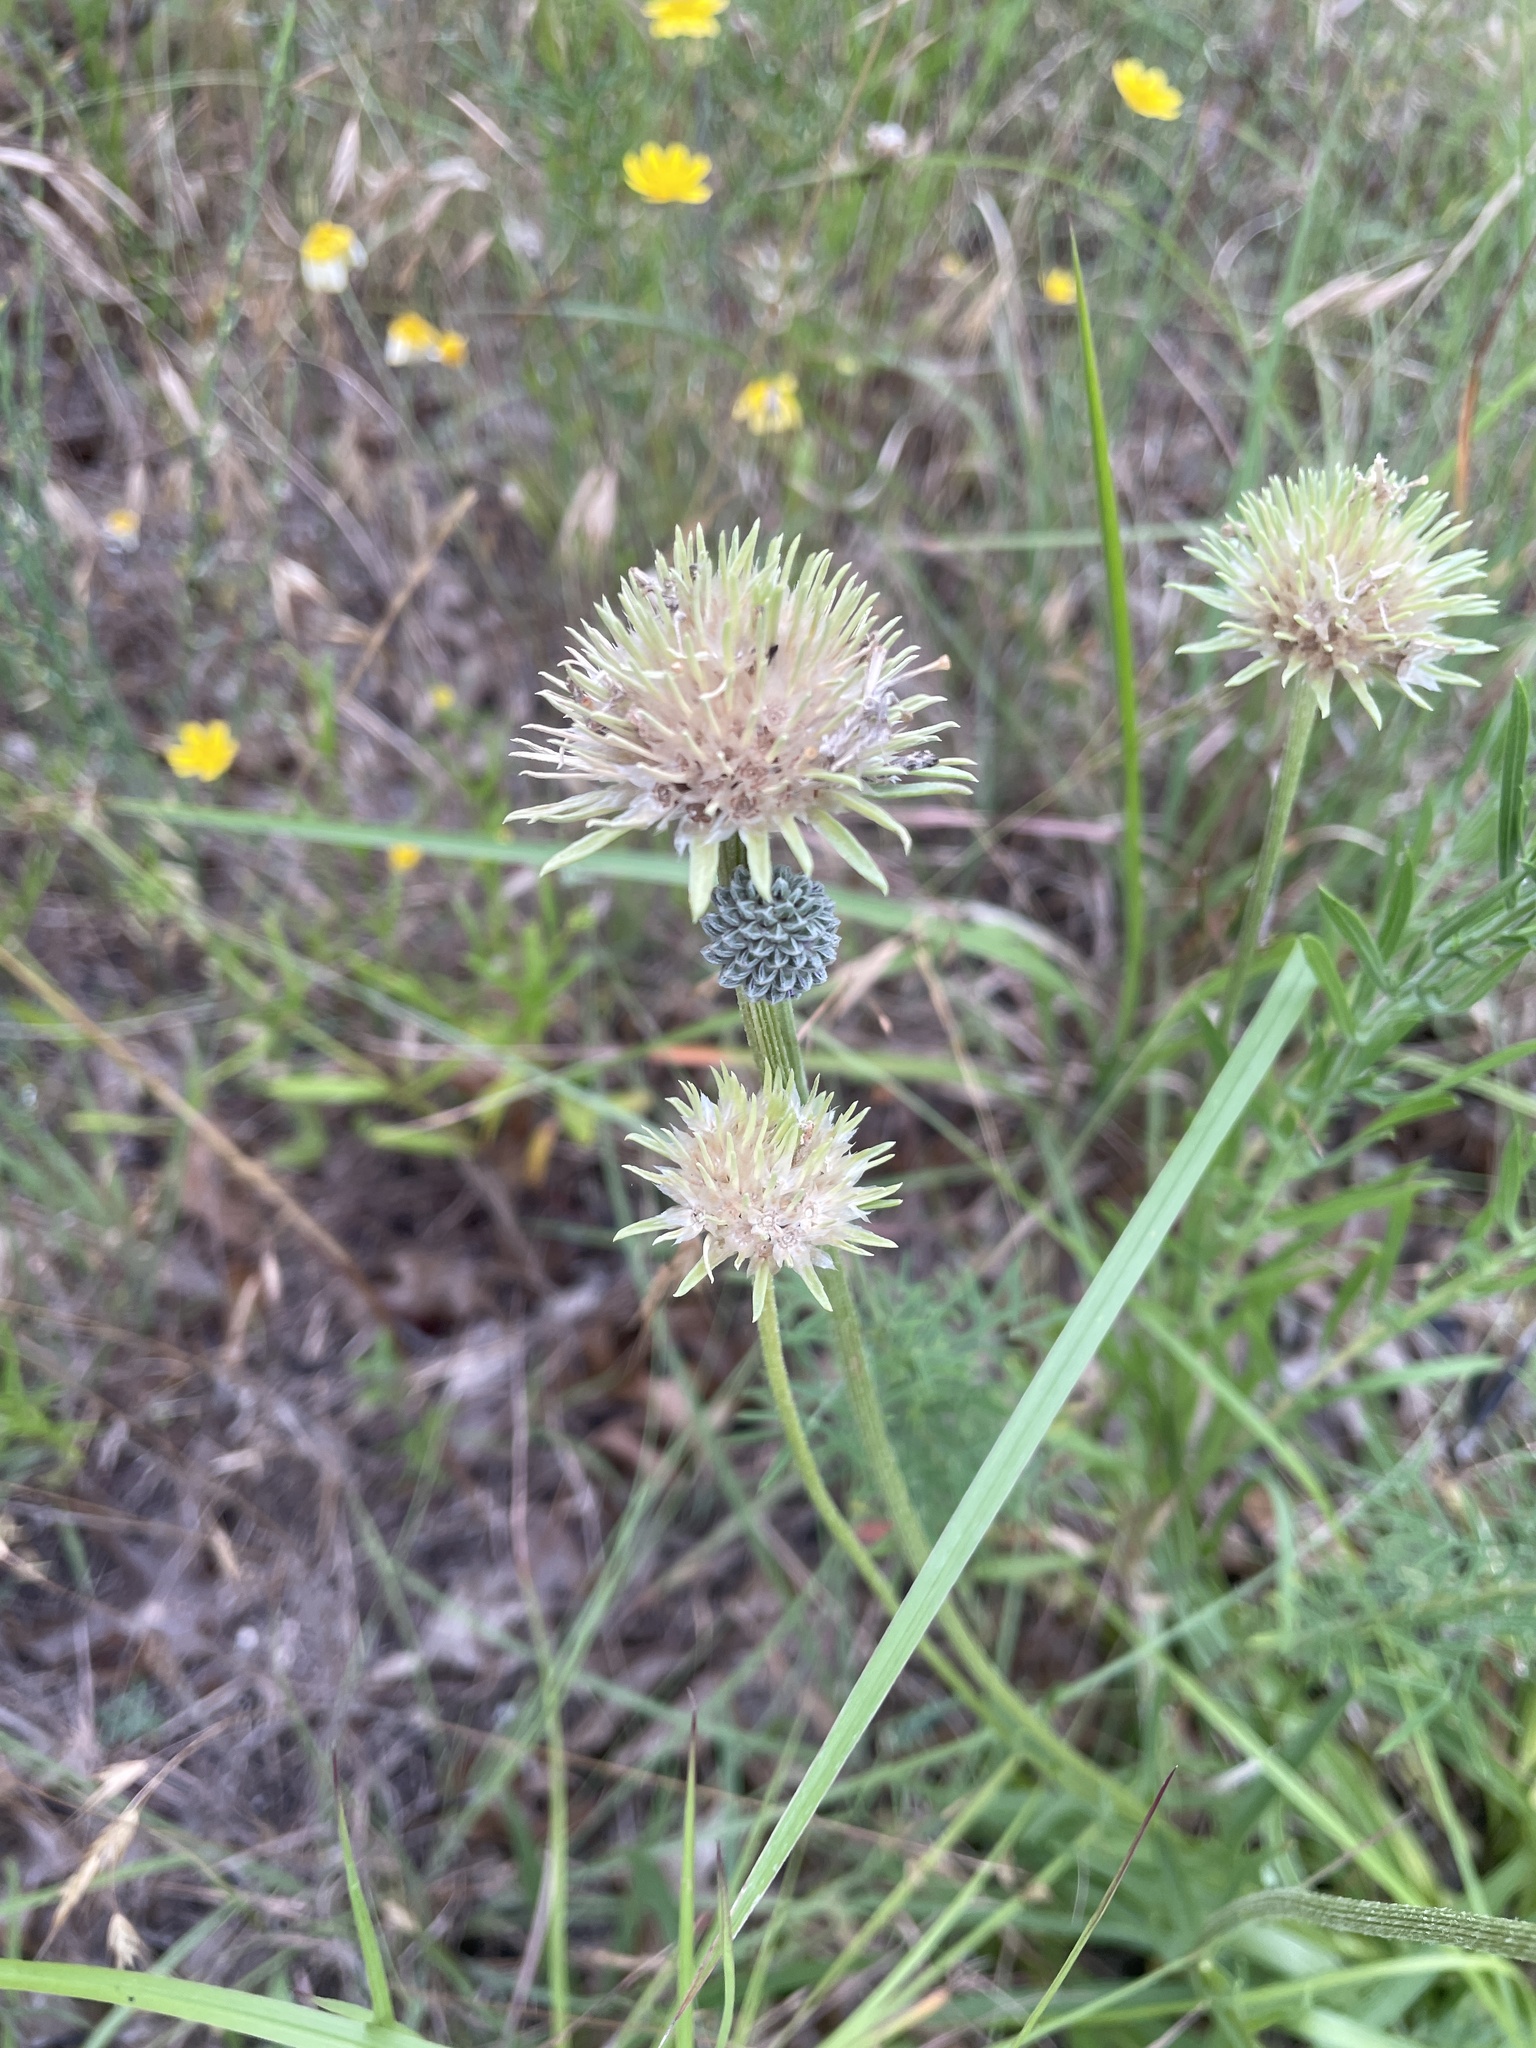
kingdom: Plantae
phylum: Tracheophyta
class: Magnoliopsida
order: Asterales
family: Asteraceae
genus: Marshallia
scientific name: Marshallia caespitosa
